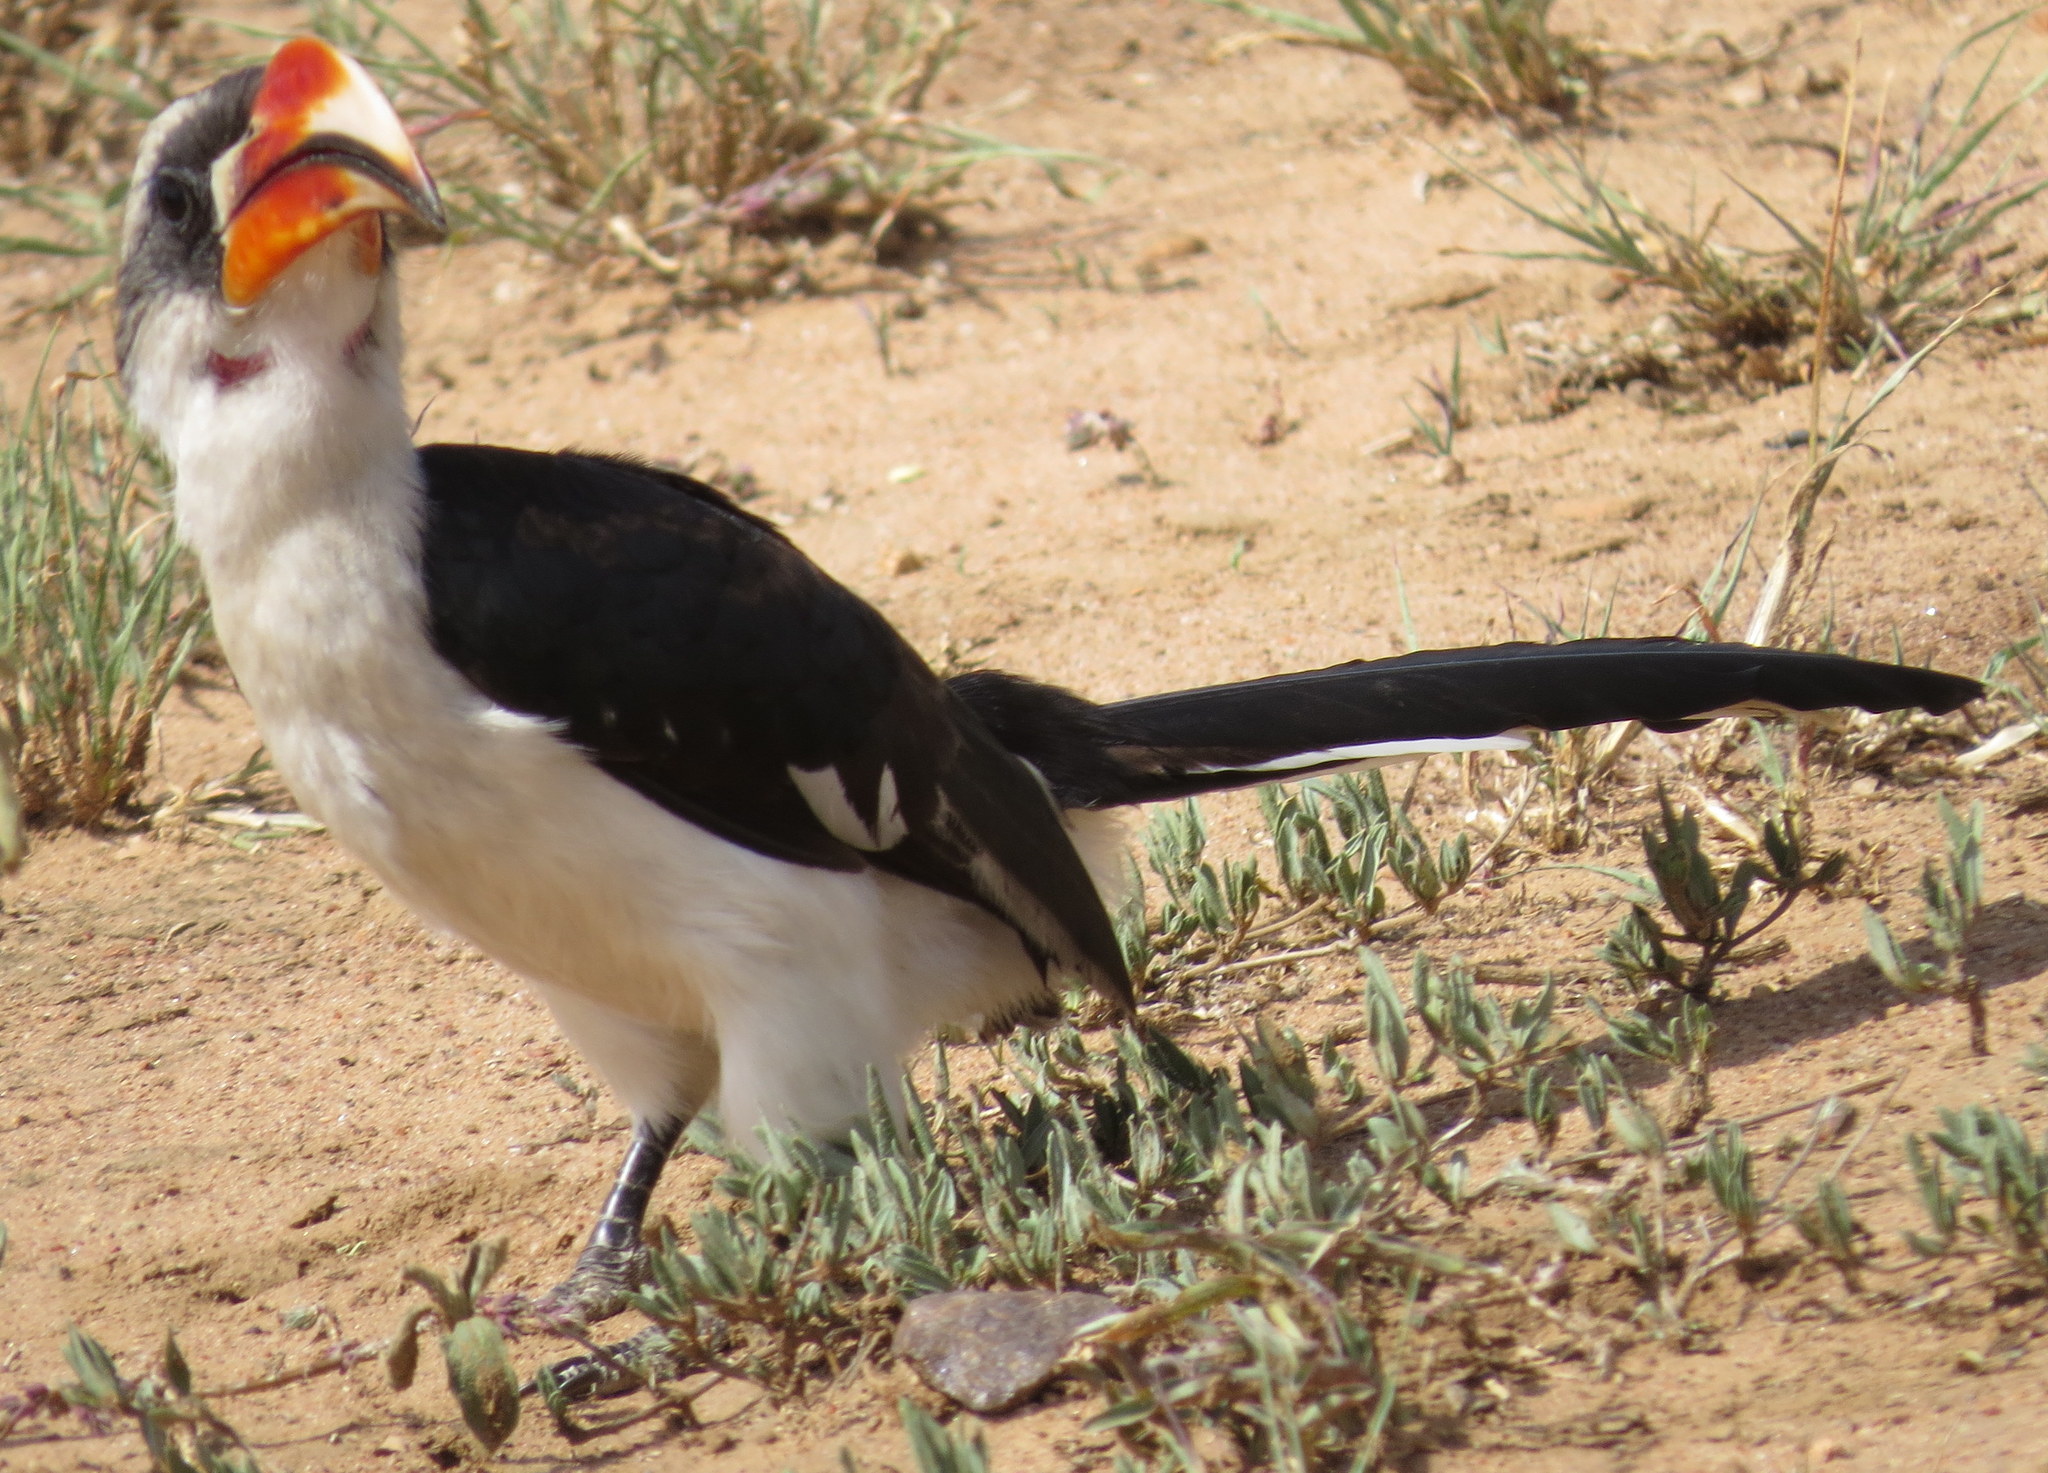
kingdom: Animalia
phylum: Chordata
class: Aves
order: Bucerotiformes
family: Bucerotidae
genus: Tockus
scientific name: Tockus deckeni
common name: Von der decken's hornbill
